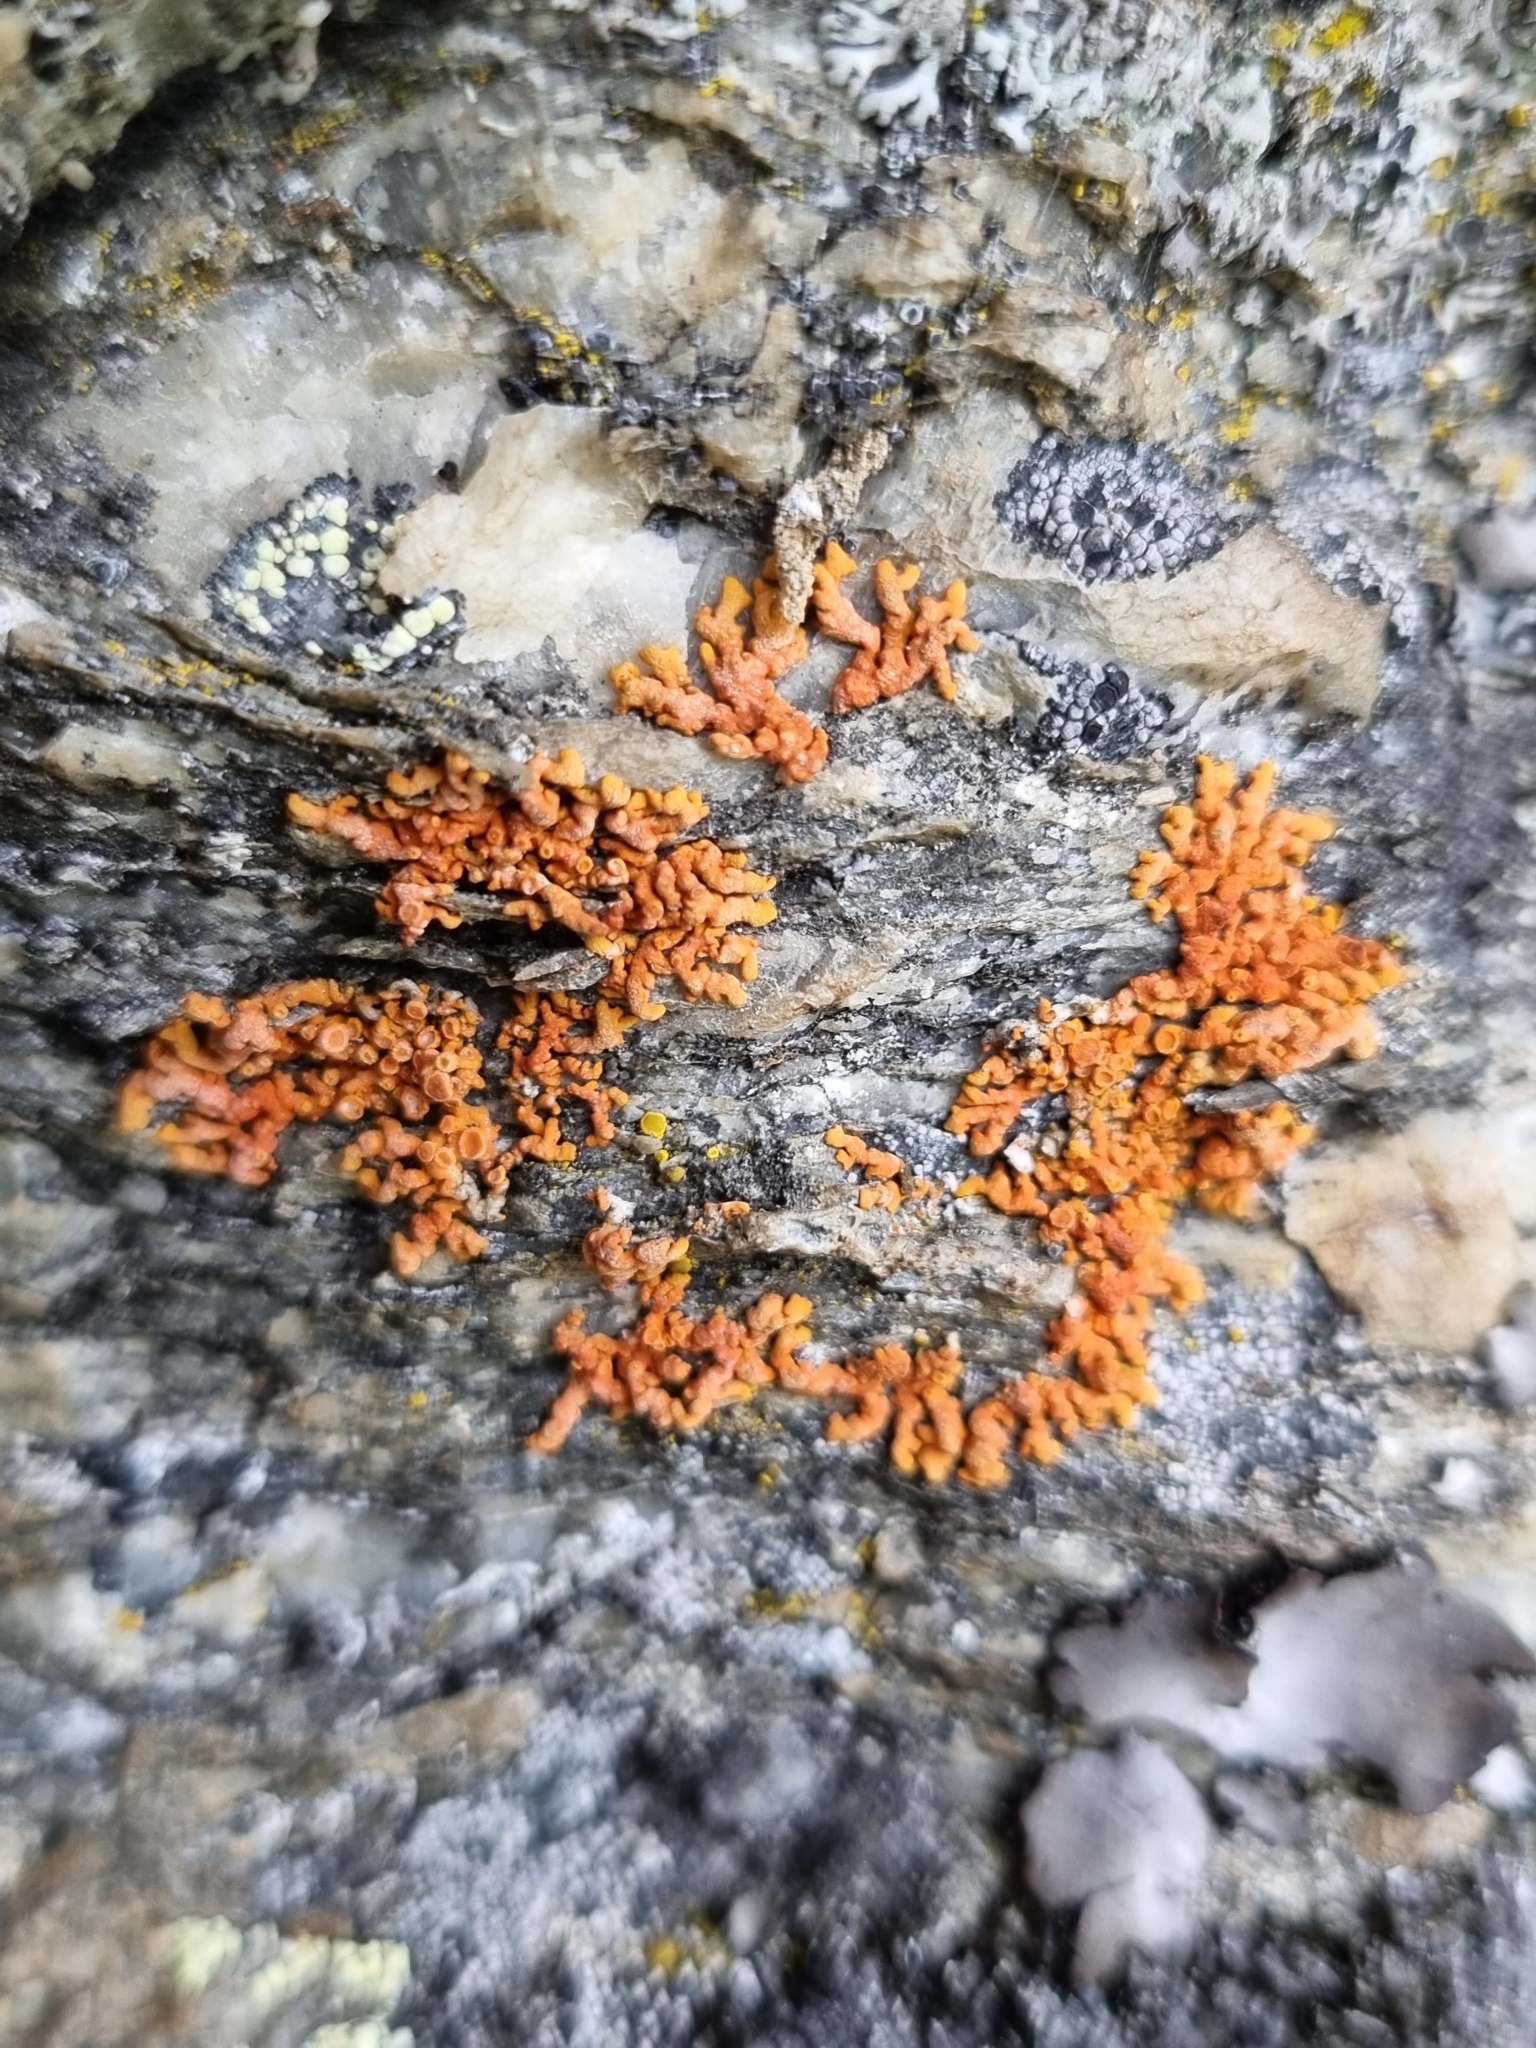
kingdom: Fungi
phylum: Ascomycota
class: Lecanoromycetes
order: Teloschistales
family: Teloschistaceae
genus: Xanthoria
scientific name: Xanthoria elegans
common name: Elegant sunburst lichen
